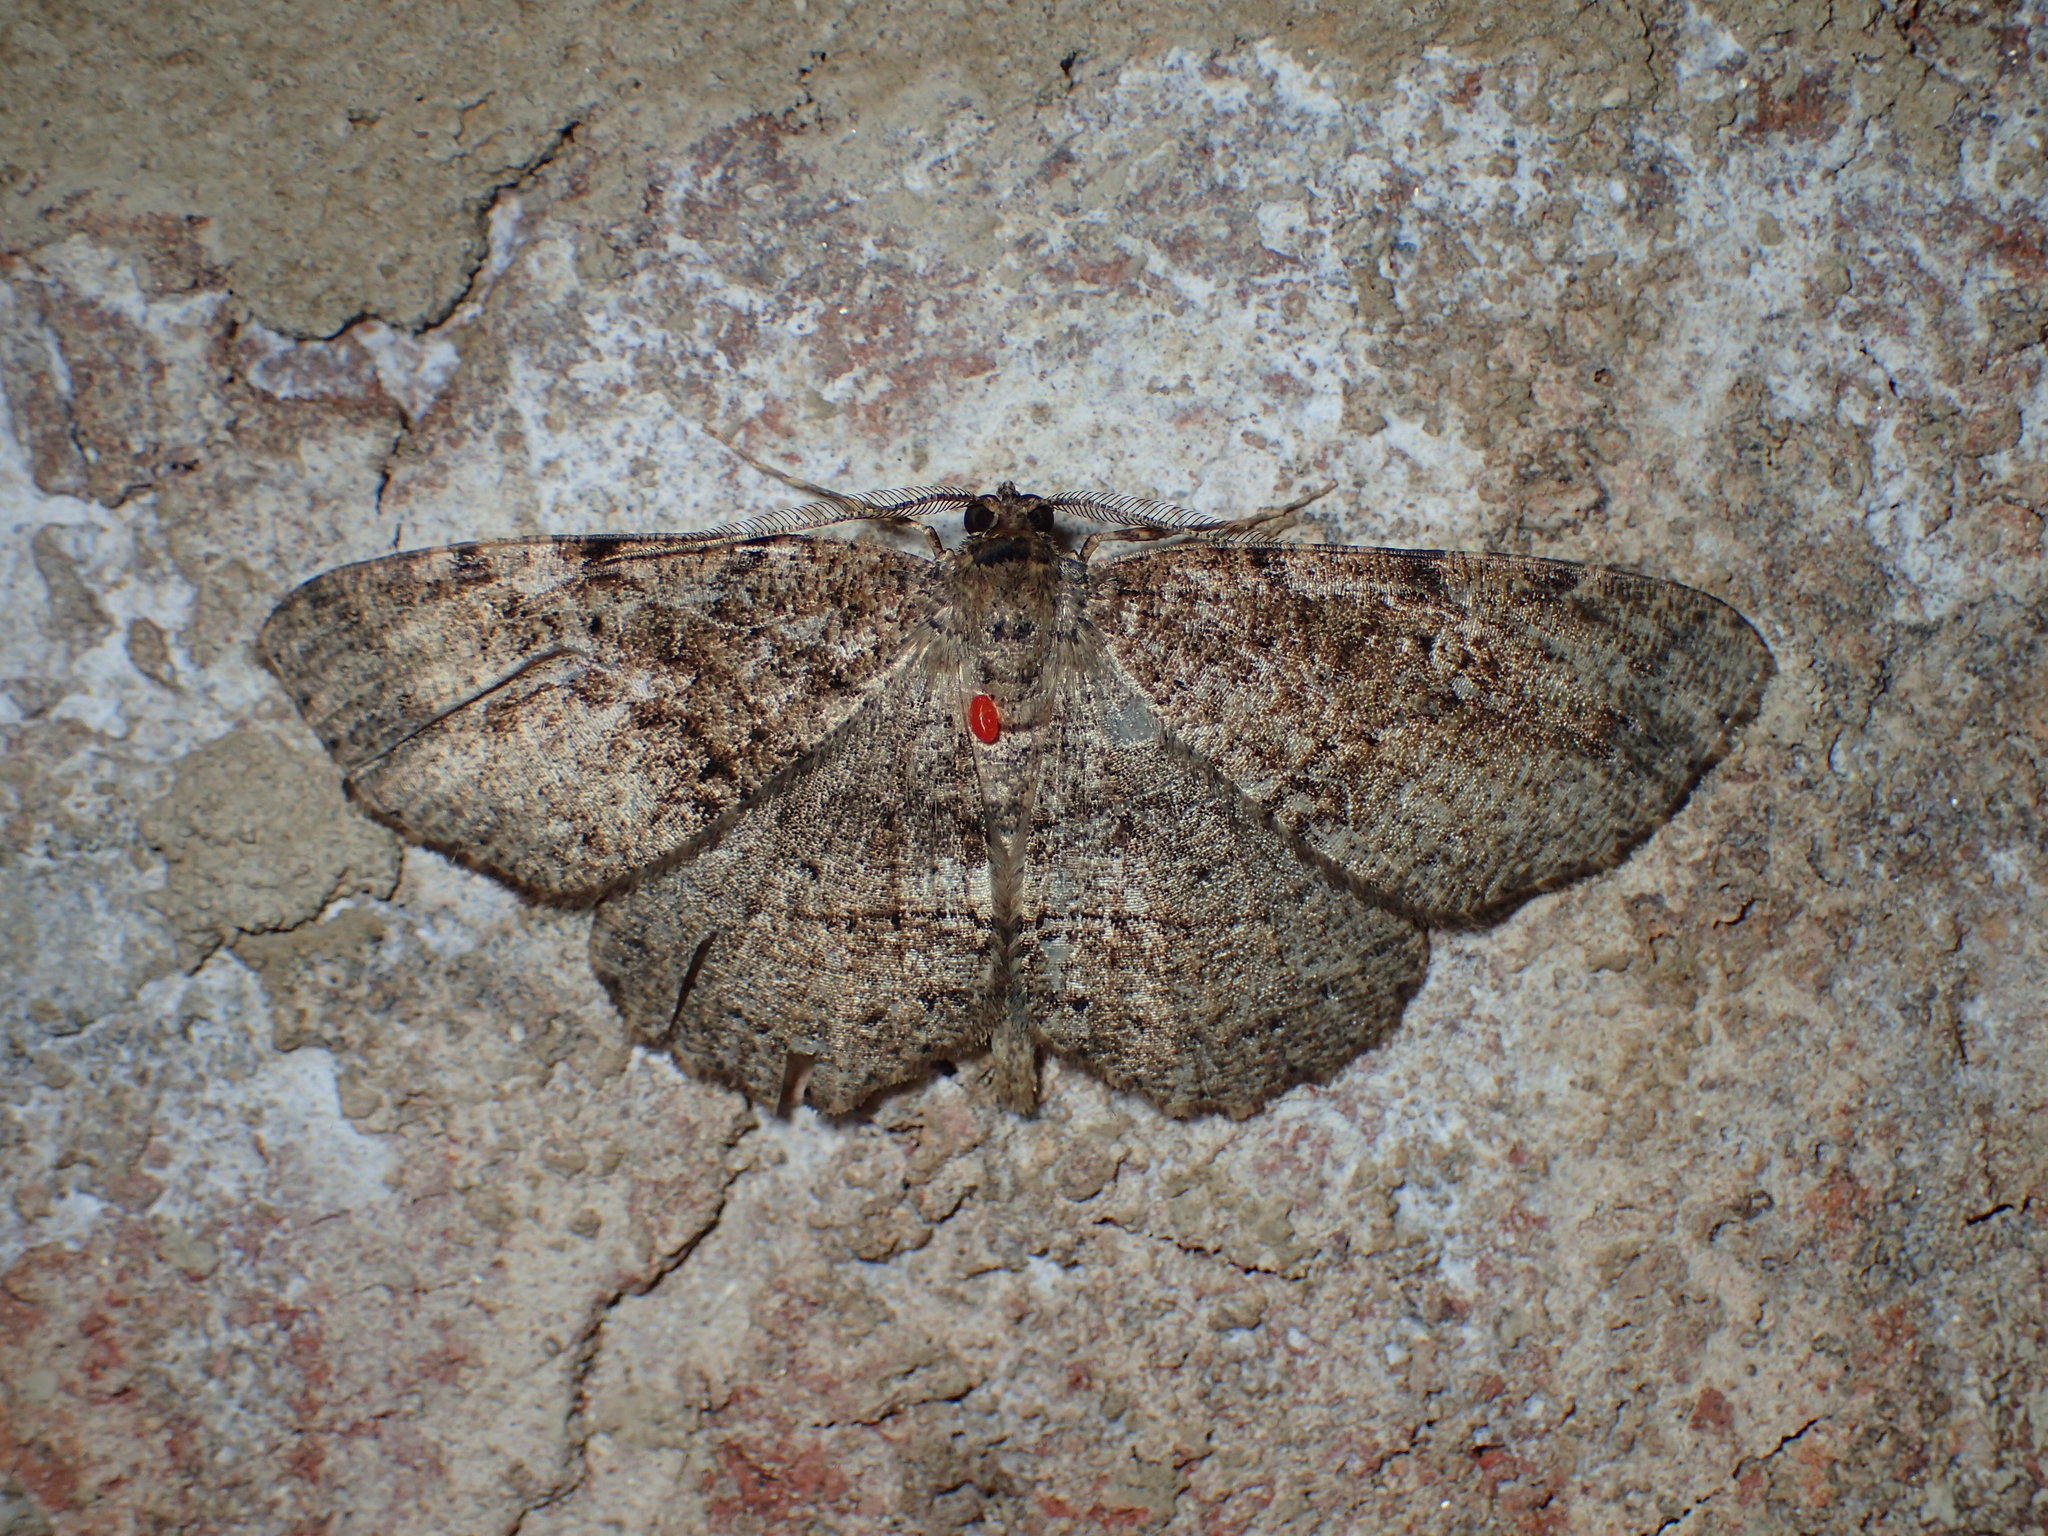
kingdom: Animalia
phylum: Arthropoda
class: Insecta
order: Lepidoptera
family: Geometridae
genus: Melanolophia
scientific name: Melanolophia canadaria
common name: Canadian melanolophia
